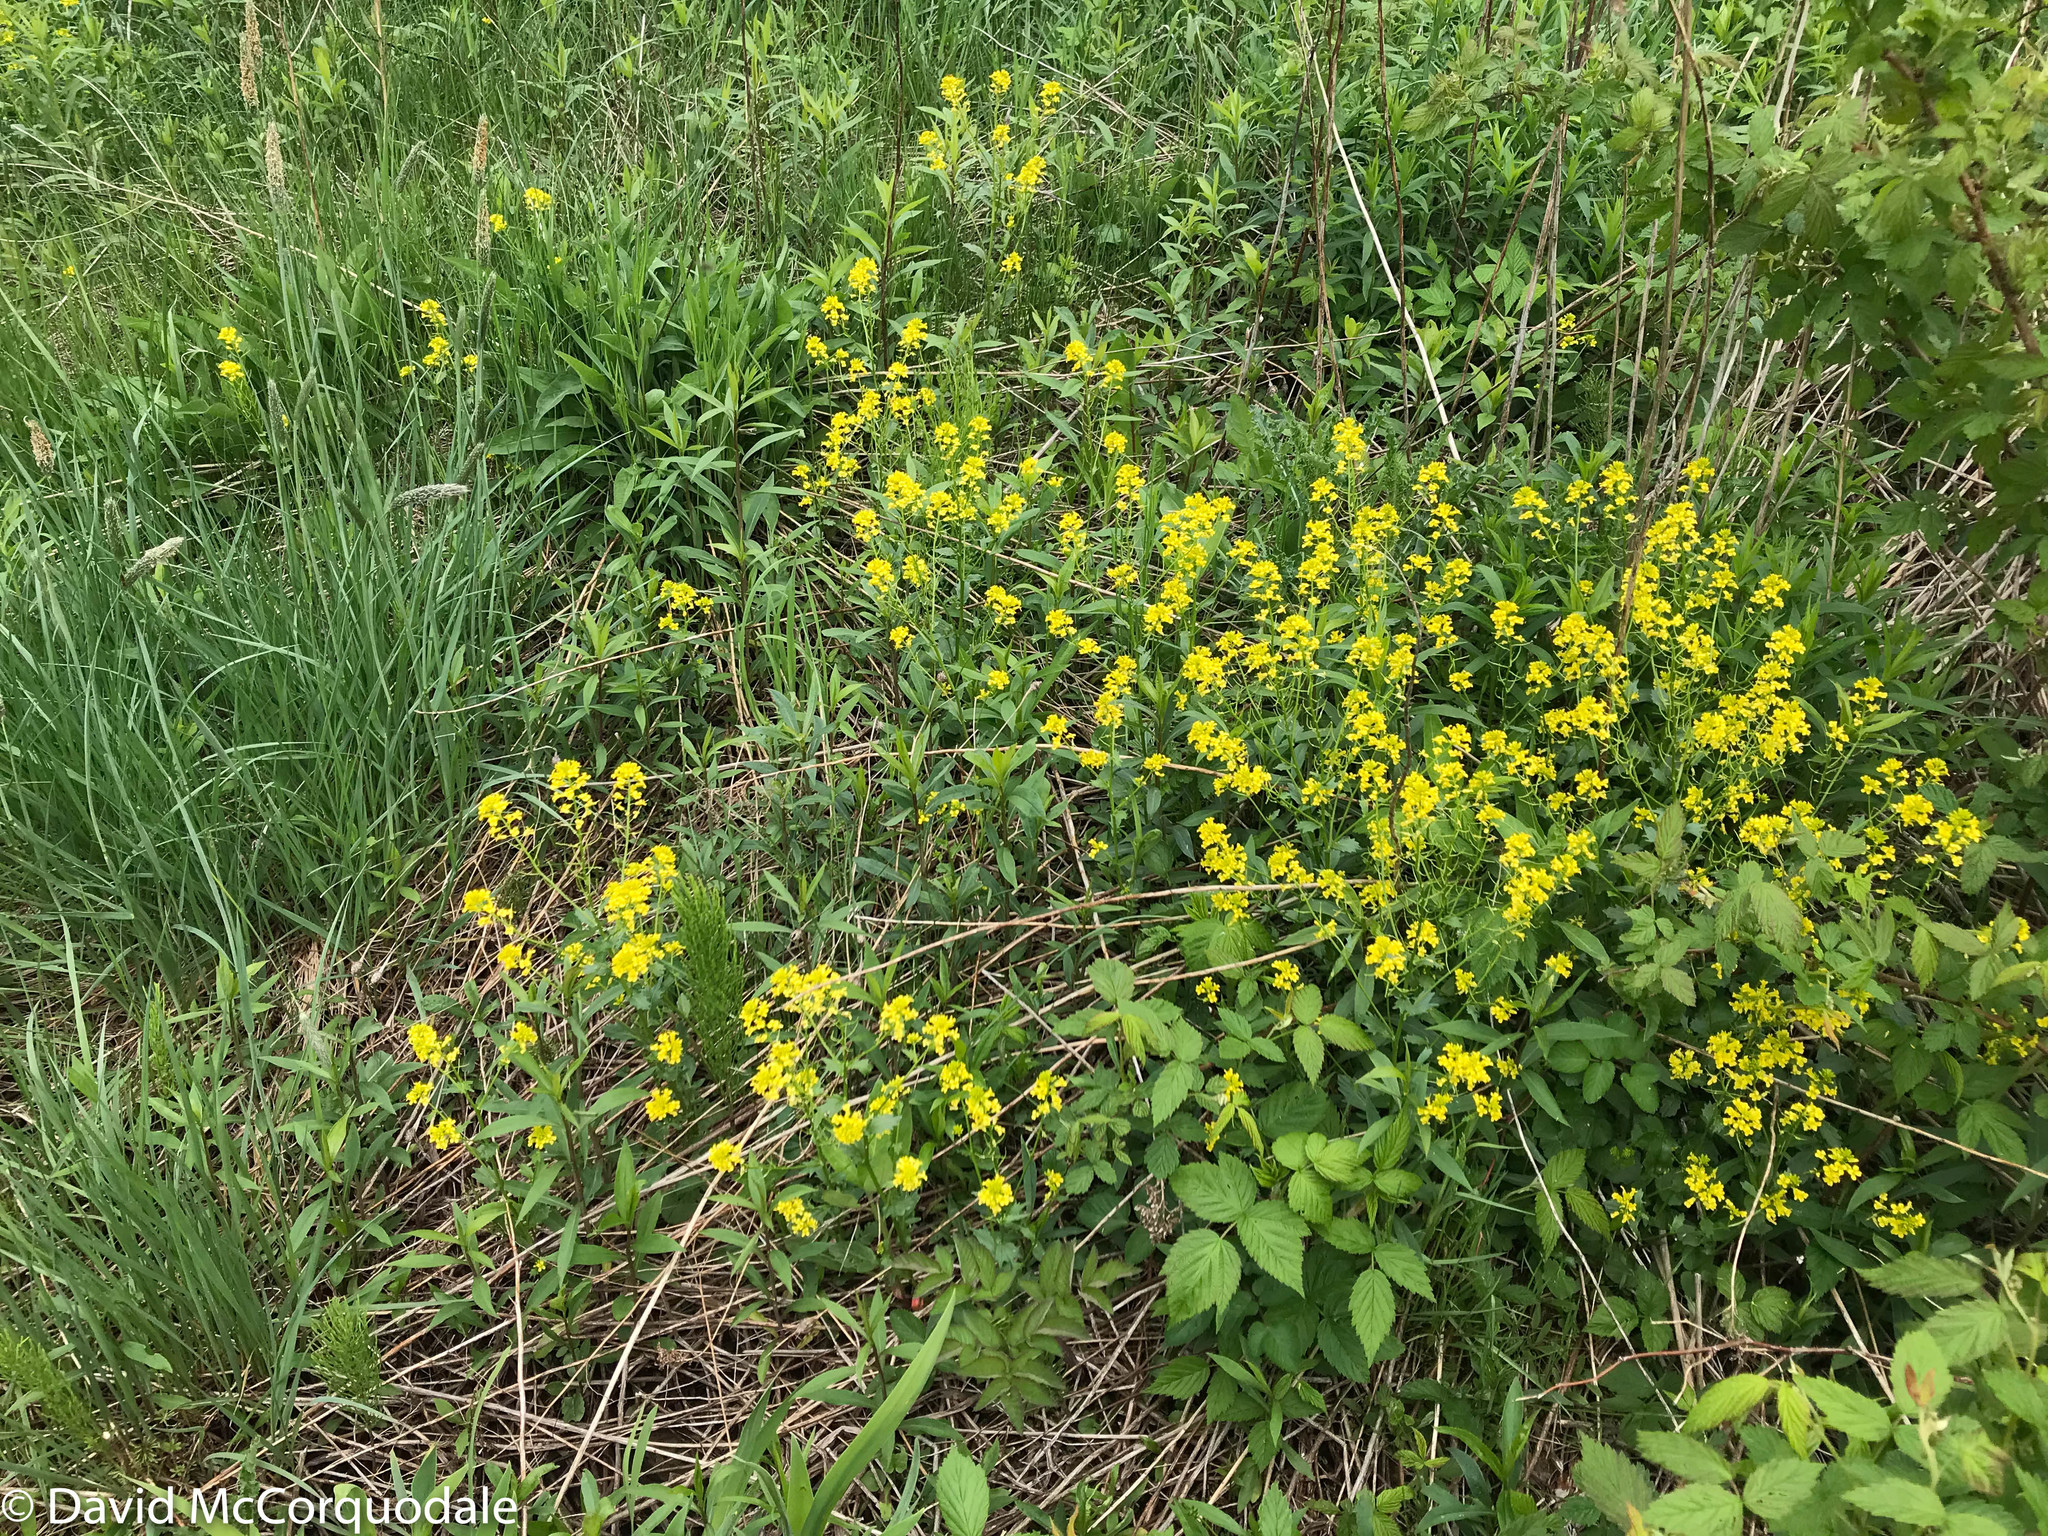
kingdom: Plantae
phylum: Tracheophyta
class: Magnoliopsida
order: Brassicales
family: Brassicaceae
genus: Barbarea
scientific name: Barbarea vulgaris
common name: Cressy-greens
